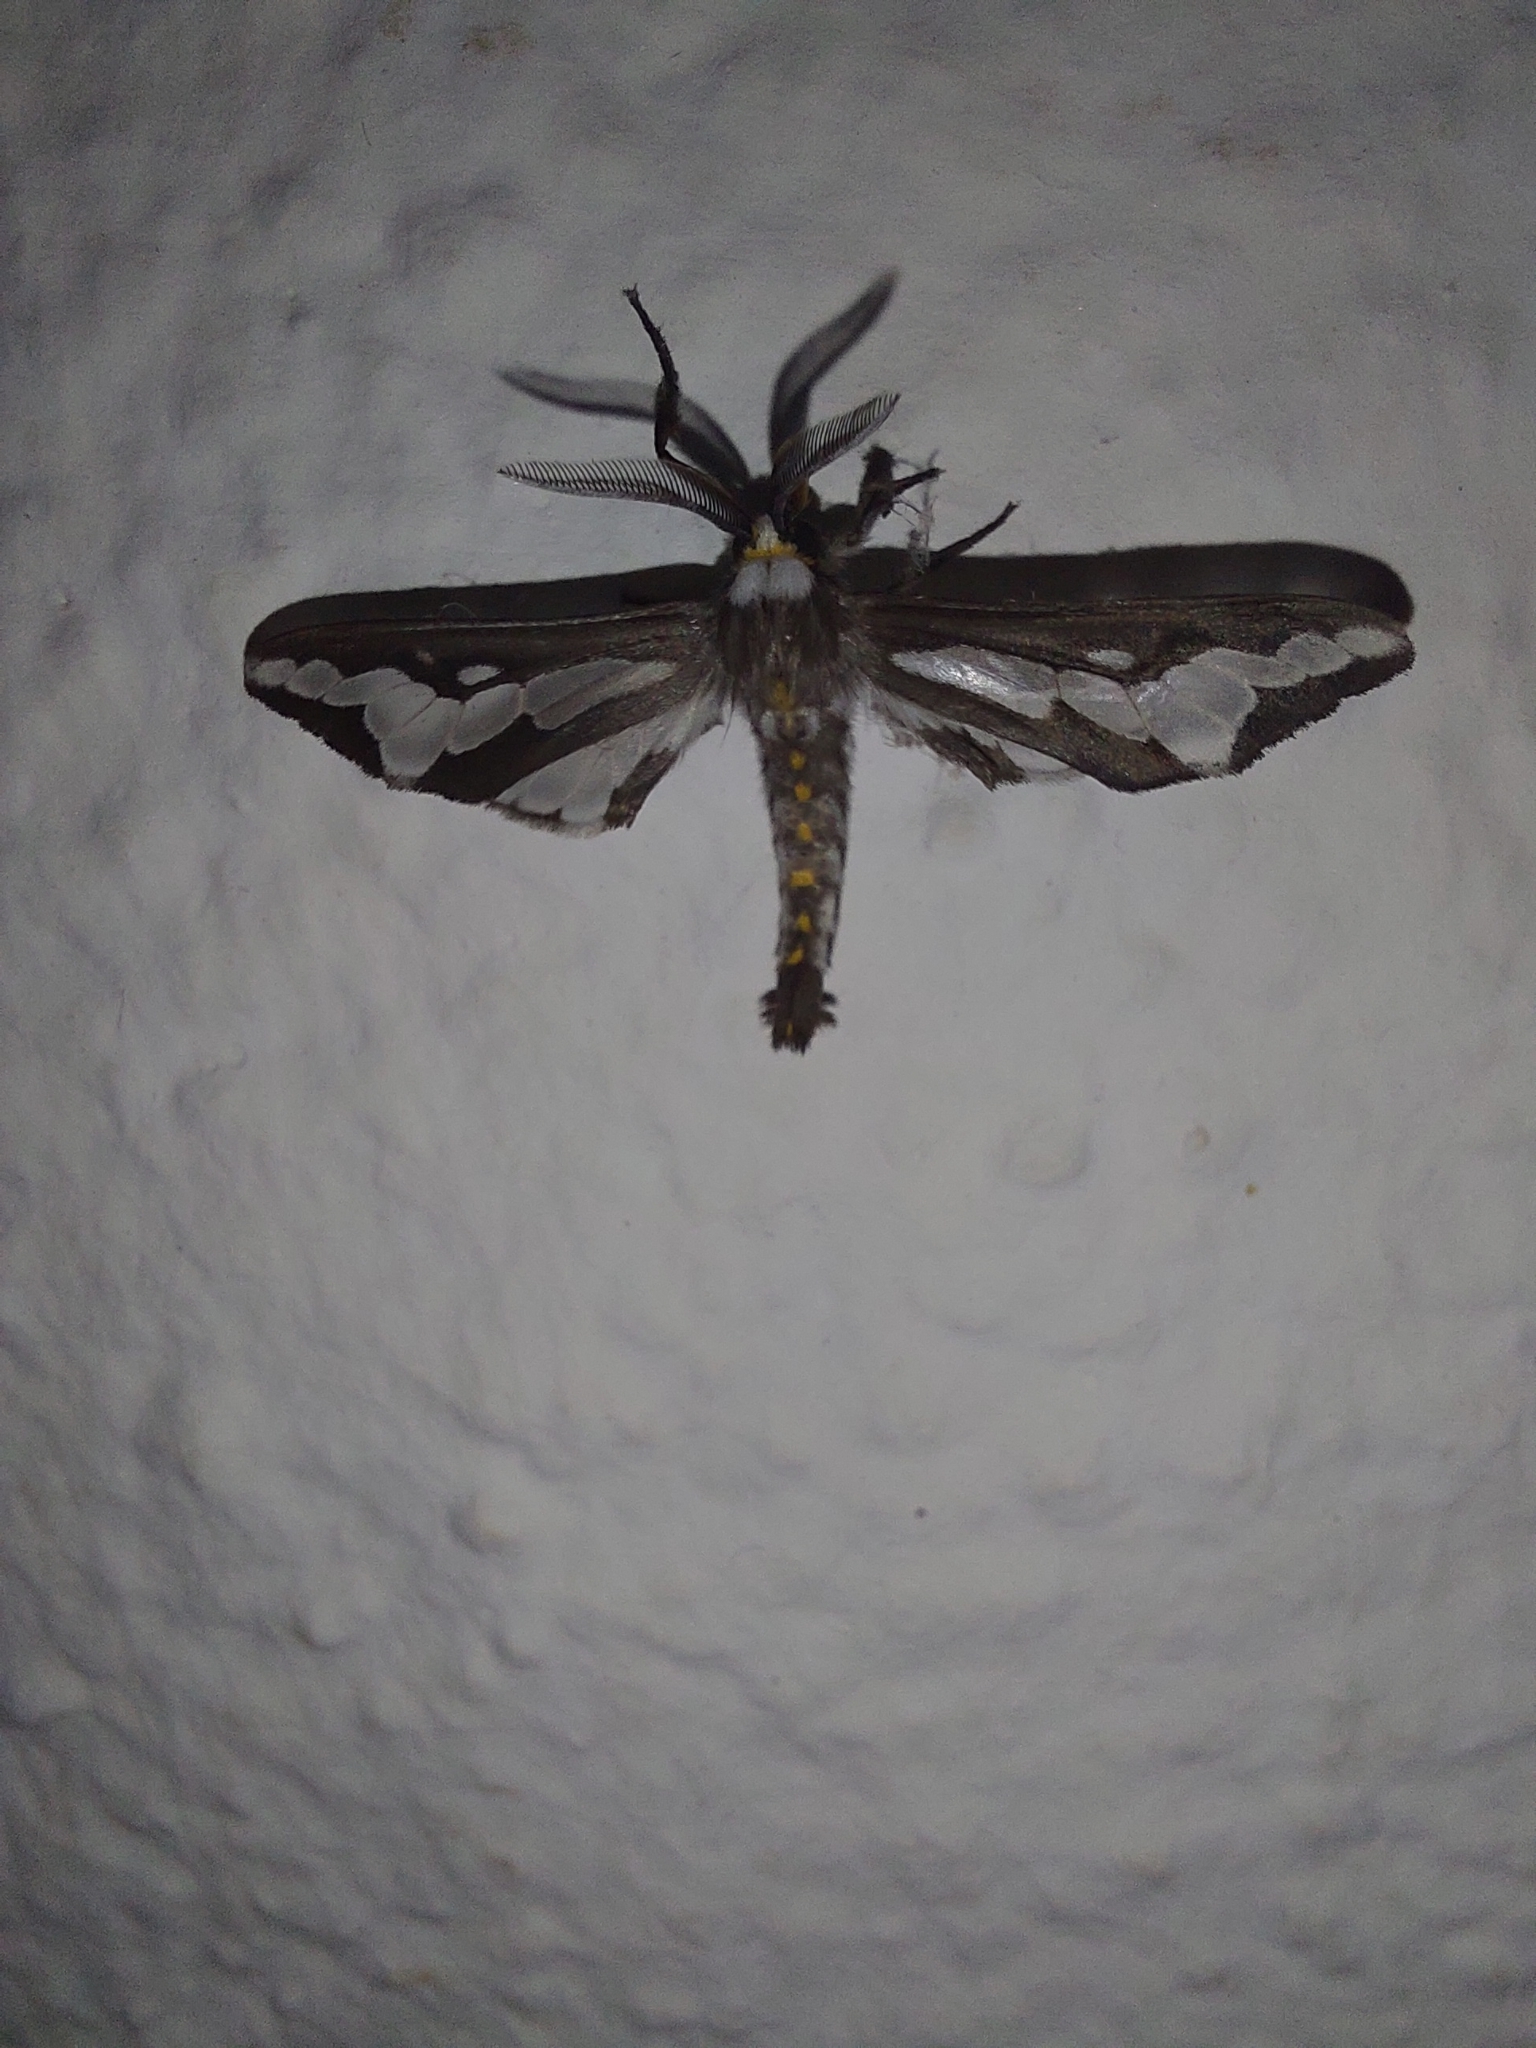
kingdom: Animalia
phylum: Arthropoda
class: Insecta
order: Lepidoptera
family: Erebidae
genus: Thyretes
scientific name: Thyretes caffra
